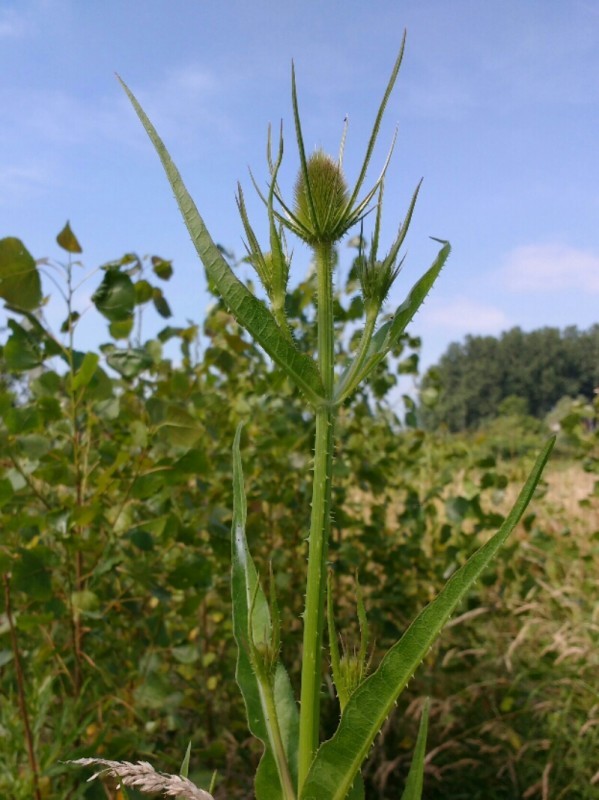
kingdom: Plantae
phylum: Tracheophyta
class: Magnoliopsida
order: Dipsacales
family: Caprifoliaceae
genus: Dipsacus
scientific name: Dipsacus fullonum
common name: Teasel
